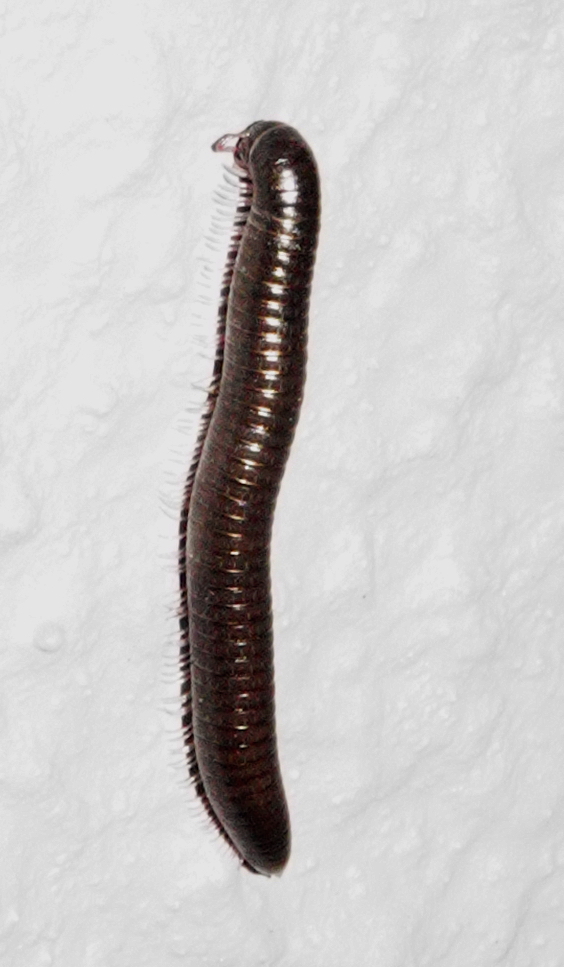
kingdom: Animalia
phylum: Arthropoda
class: Diplopoda
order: Julida
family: Julidae
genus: Ommatoiulus
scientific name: Ommatoiulus moreleti
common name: Portuguese millipede
